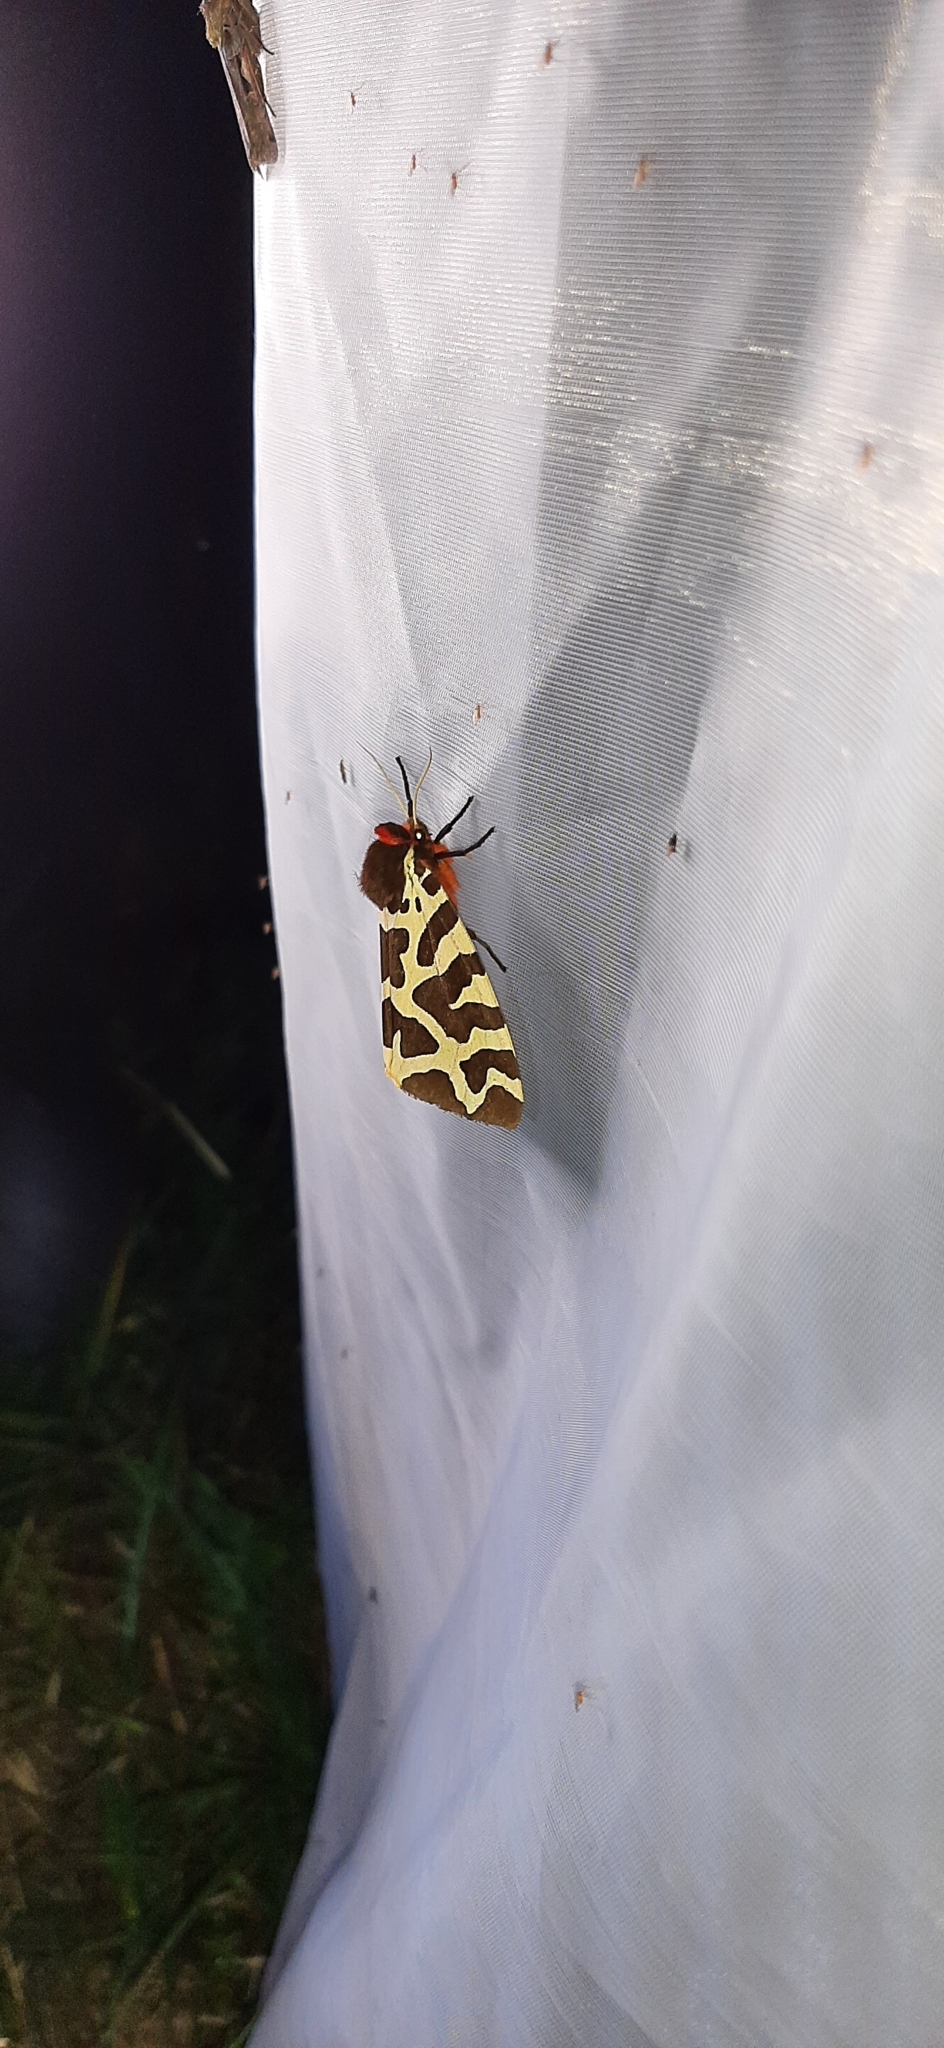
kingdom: Animalia
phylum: Arthropoda
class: Insecta
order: Lepidoptera
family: Erebidae
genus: Arctia
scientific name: Arctia caja
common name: Garden tiger
